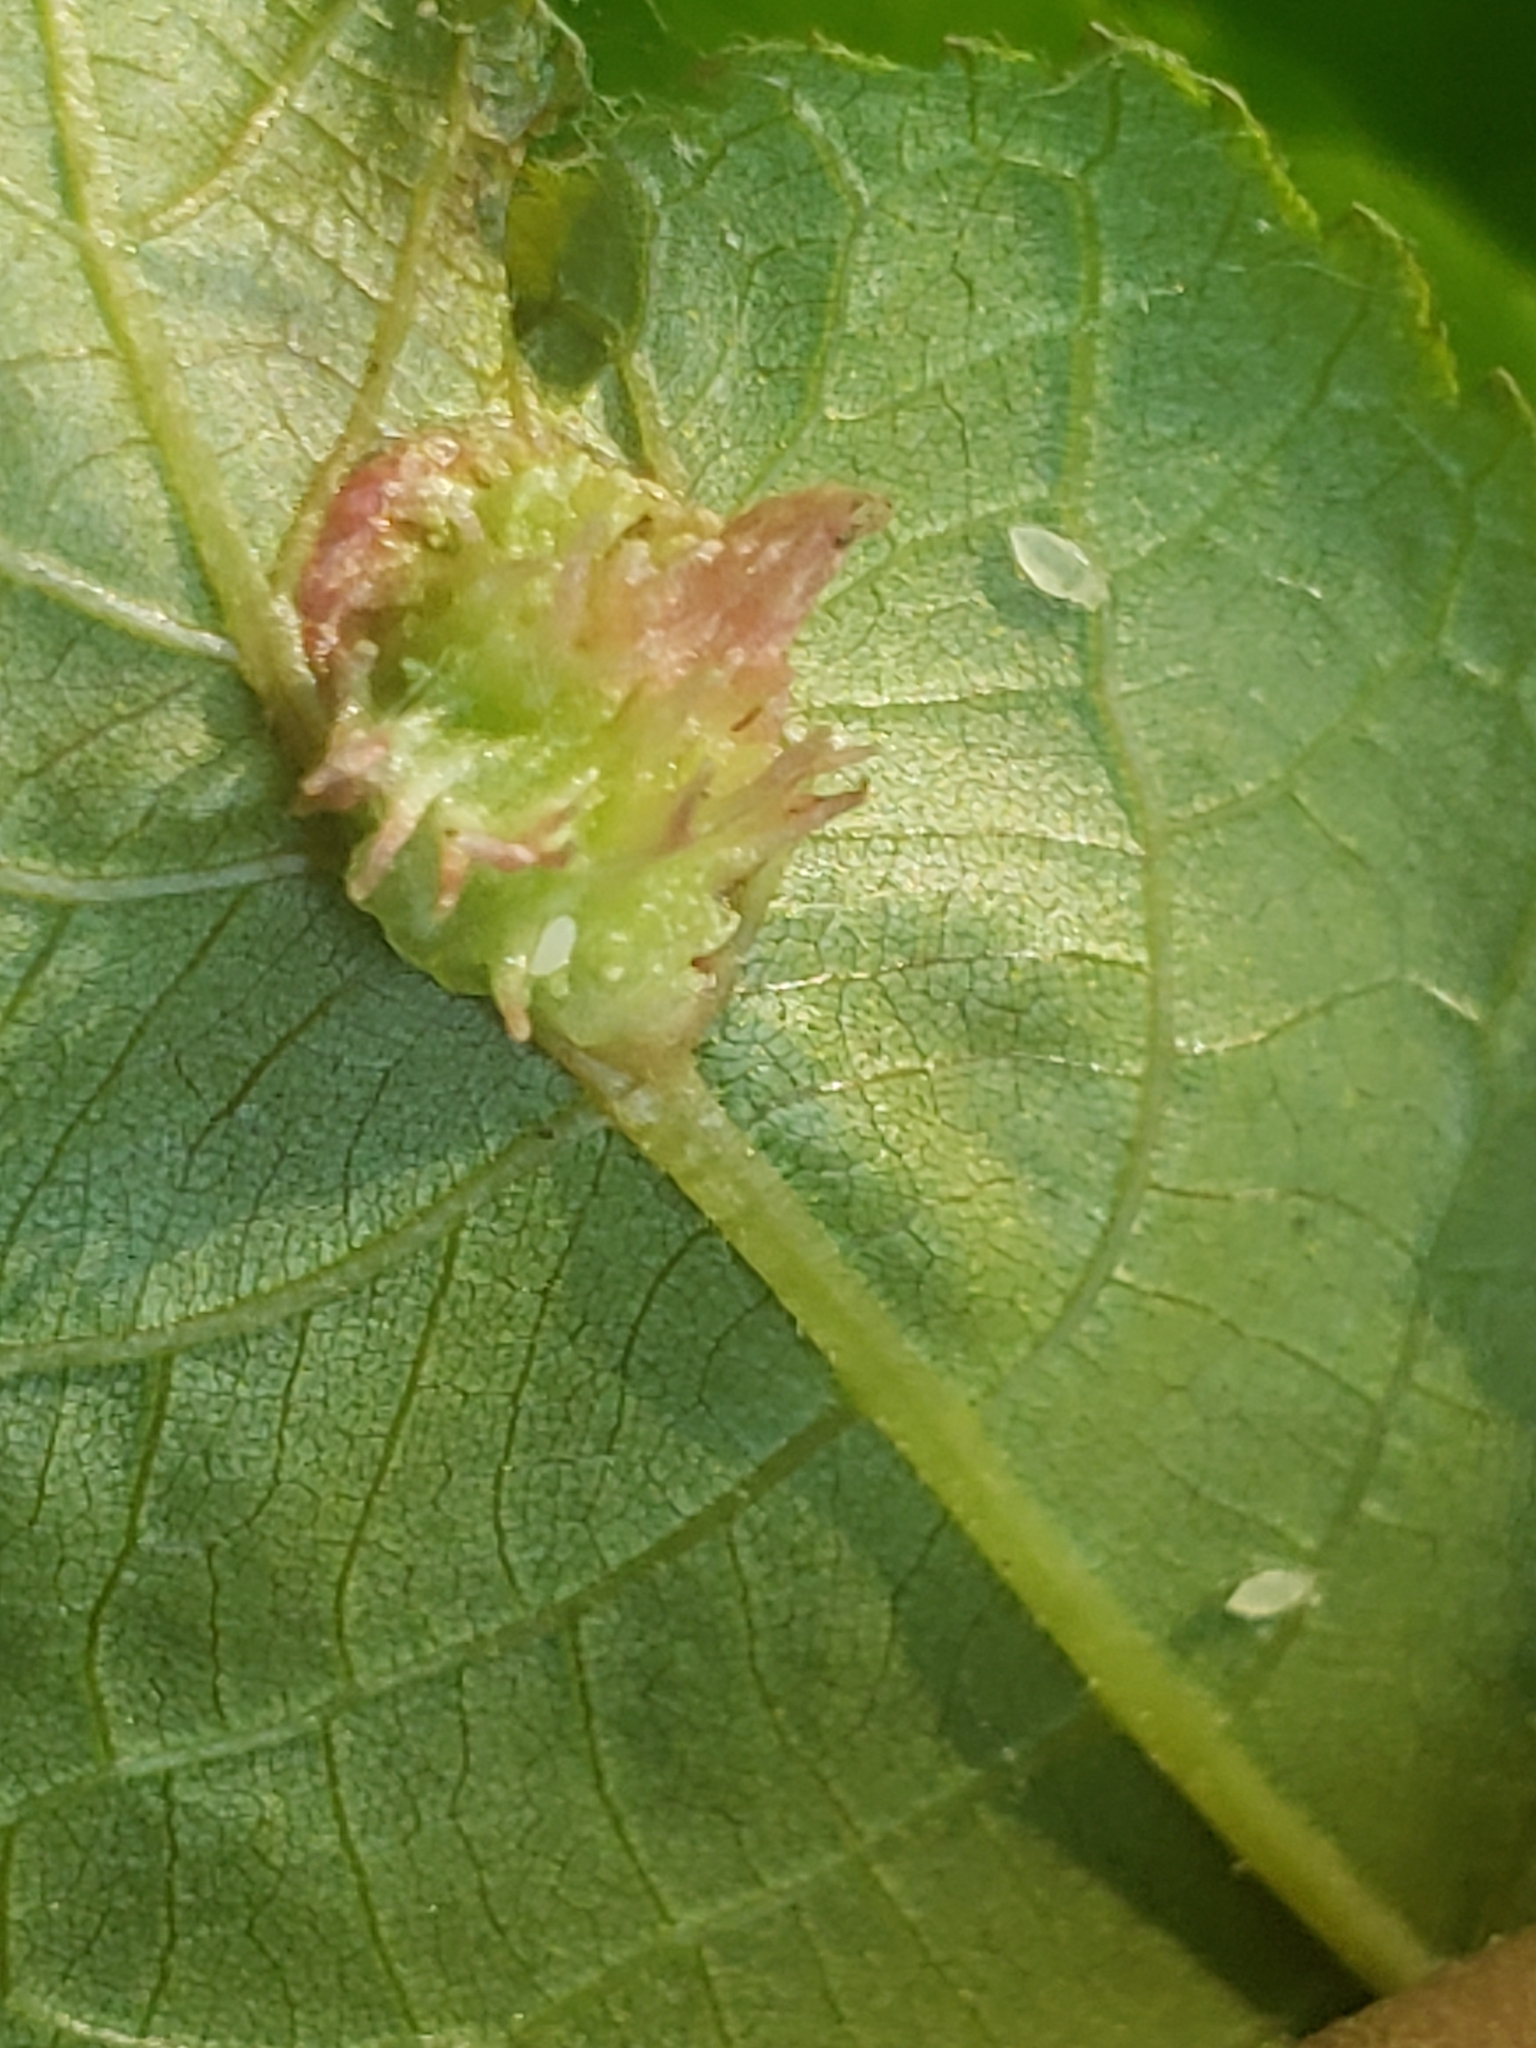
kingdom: Animalia
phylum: Arthropoda
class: Insecta
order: Hemiptera
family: Phylloxeridae
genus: Phylloxera
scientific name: Phylloxera spinosa
